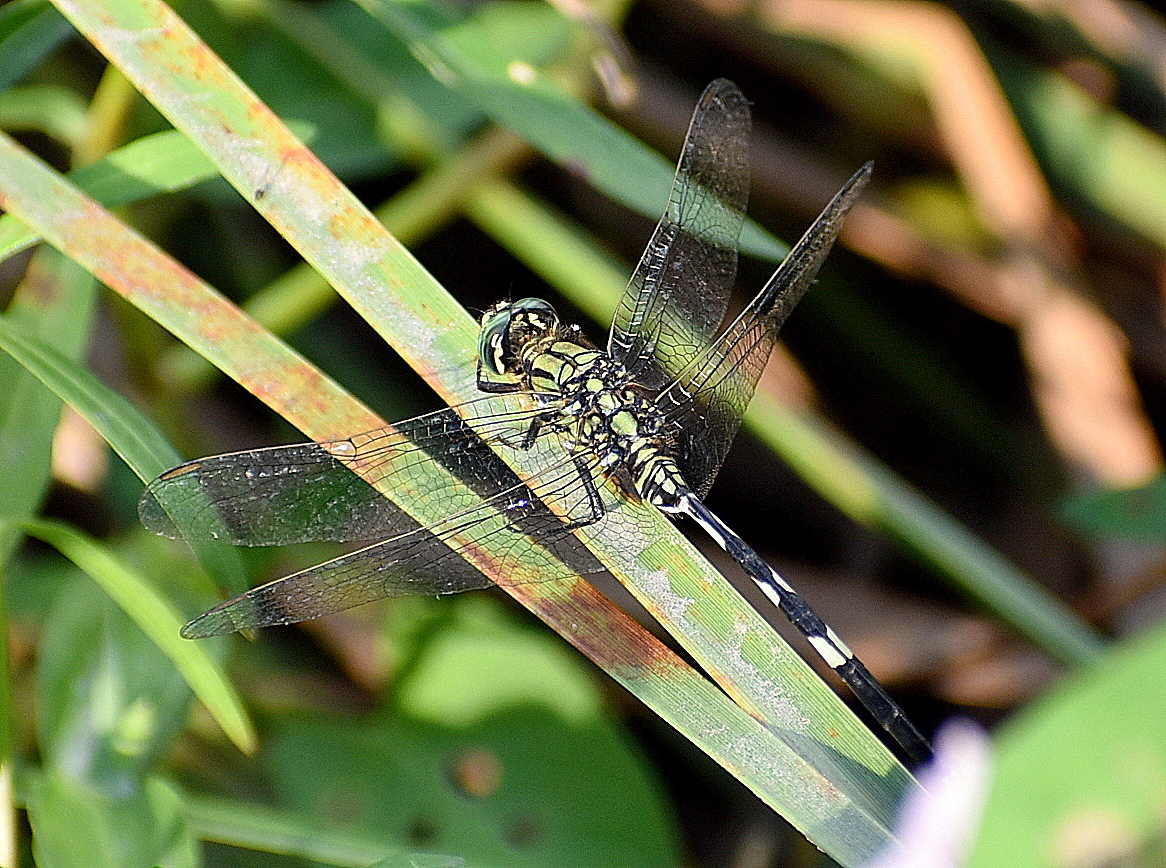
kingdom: Animalia
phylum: Arthropoda
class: Insecta
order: Odonata
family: Libellulidae
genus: Orthetrum
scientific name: Orthetrum sabina
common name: Slender skimmer
